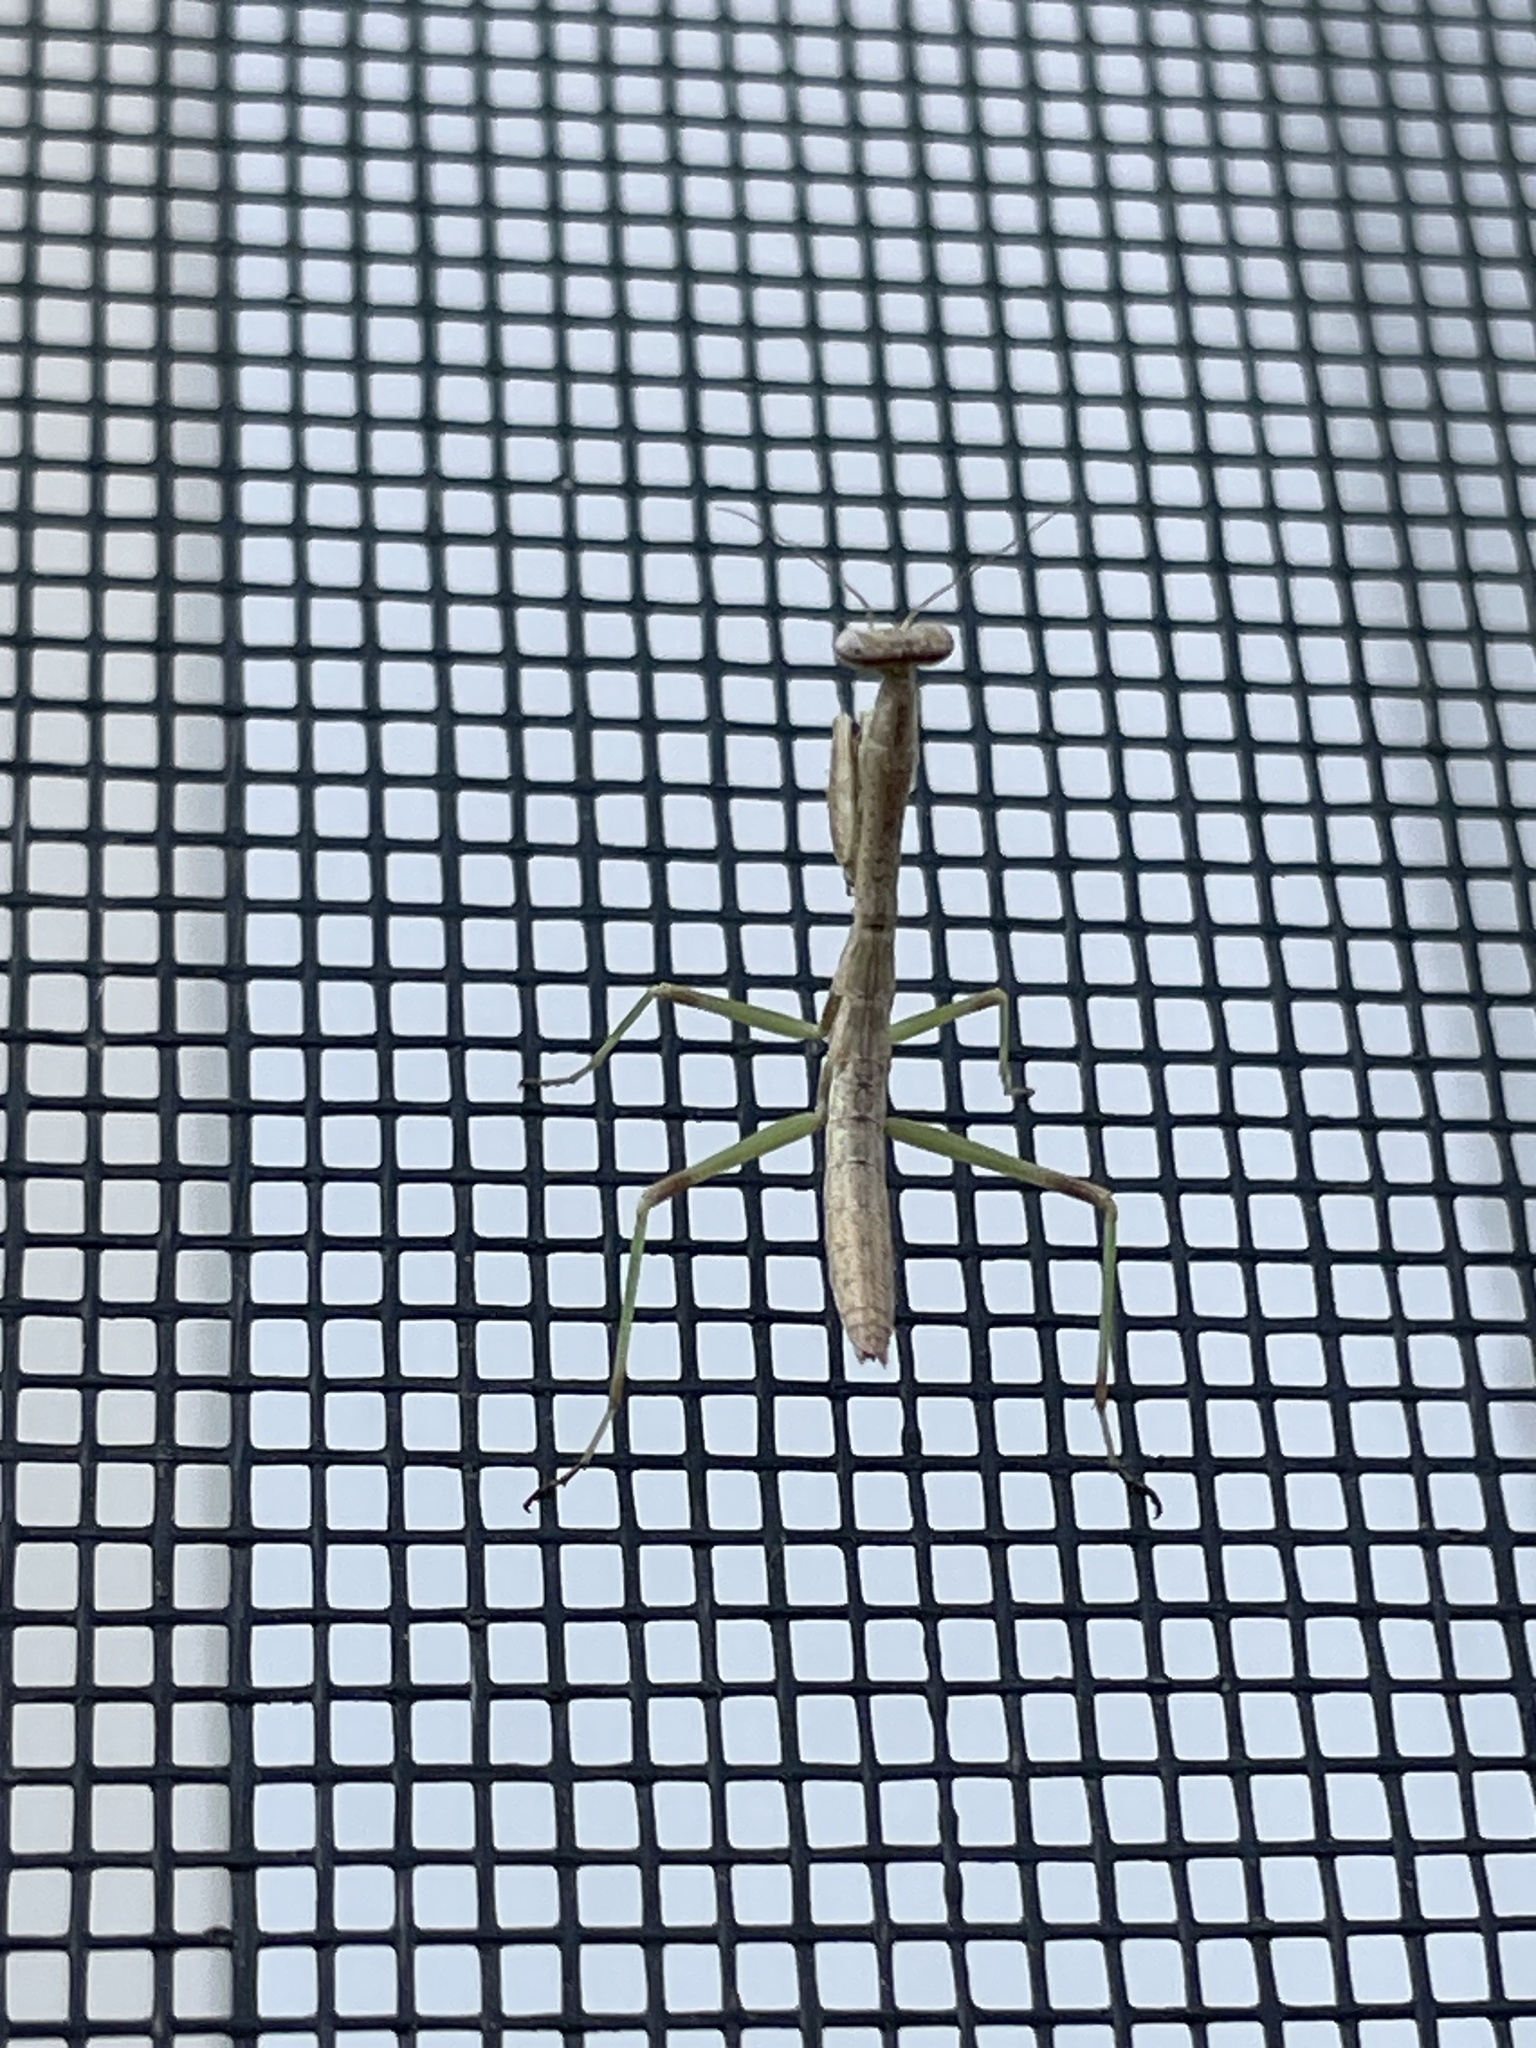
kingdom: Animalia
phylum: Arthropoda
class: Insecta
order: Mantodea
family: Mantidae
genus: Stagmomantis
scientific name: Stagmomantis carolina
